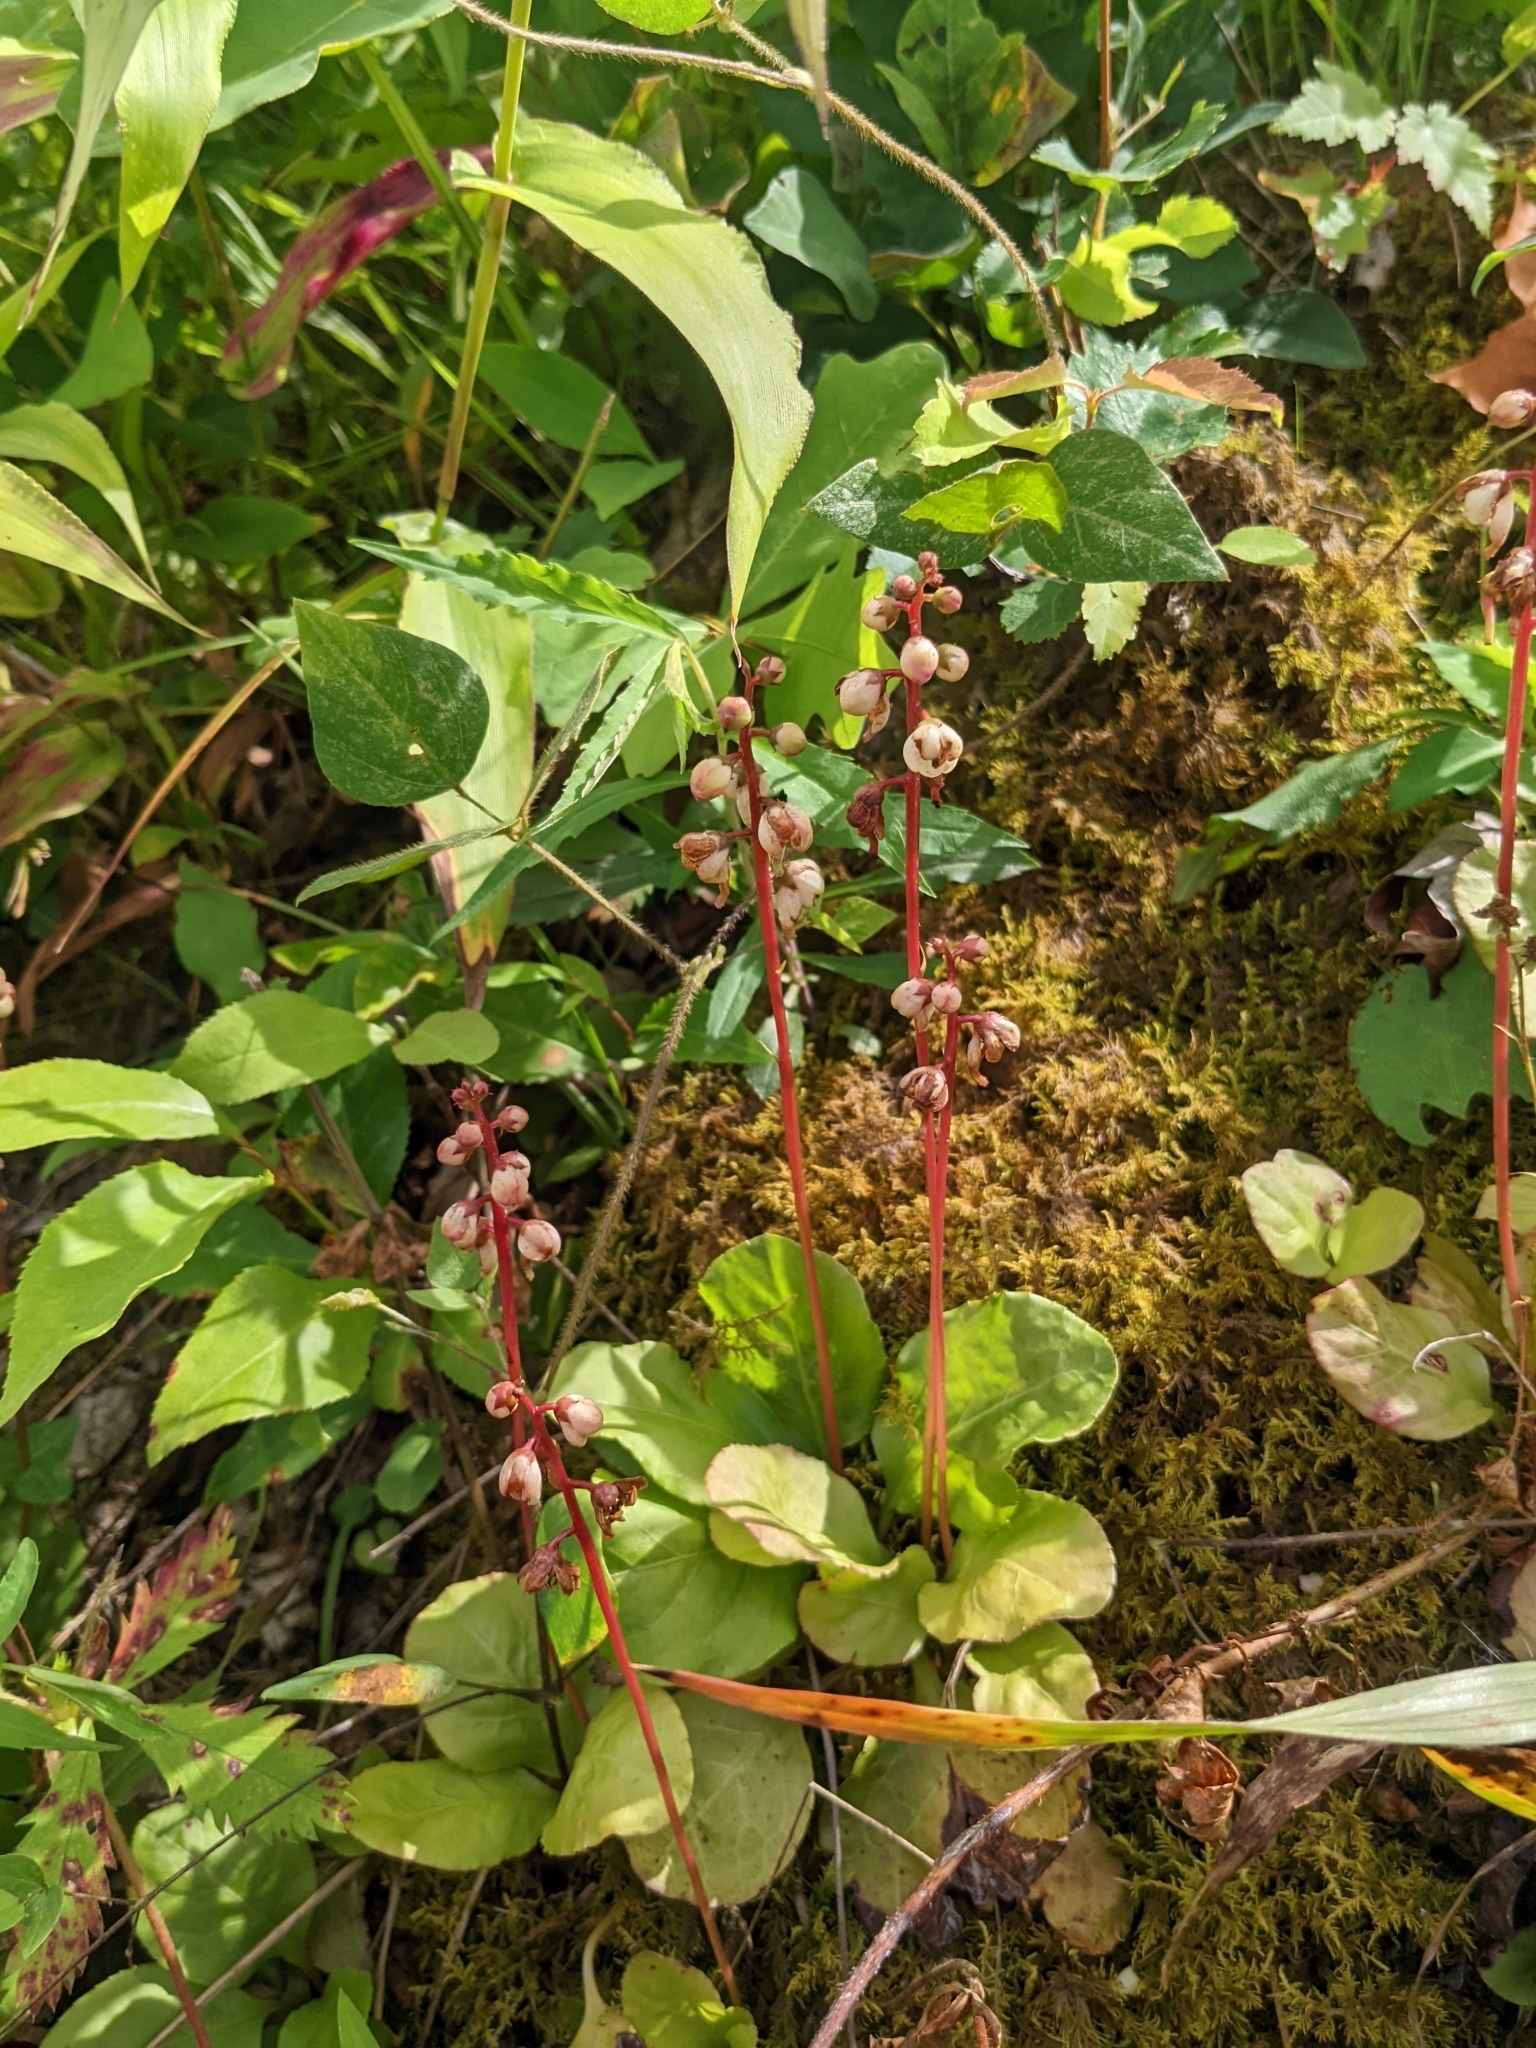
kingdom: Plantae
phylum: Tracheophyta
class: Magnoliopsida
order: Ericales
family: Ericaceae
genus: Pyrola
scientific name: Pyrola elliptica
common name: Shinleaf
